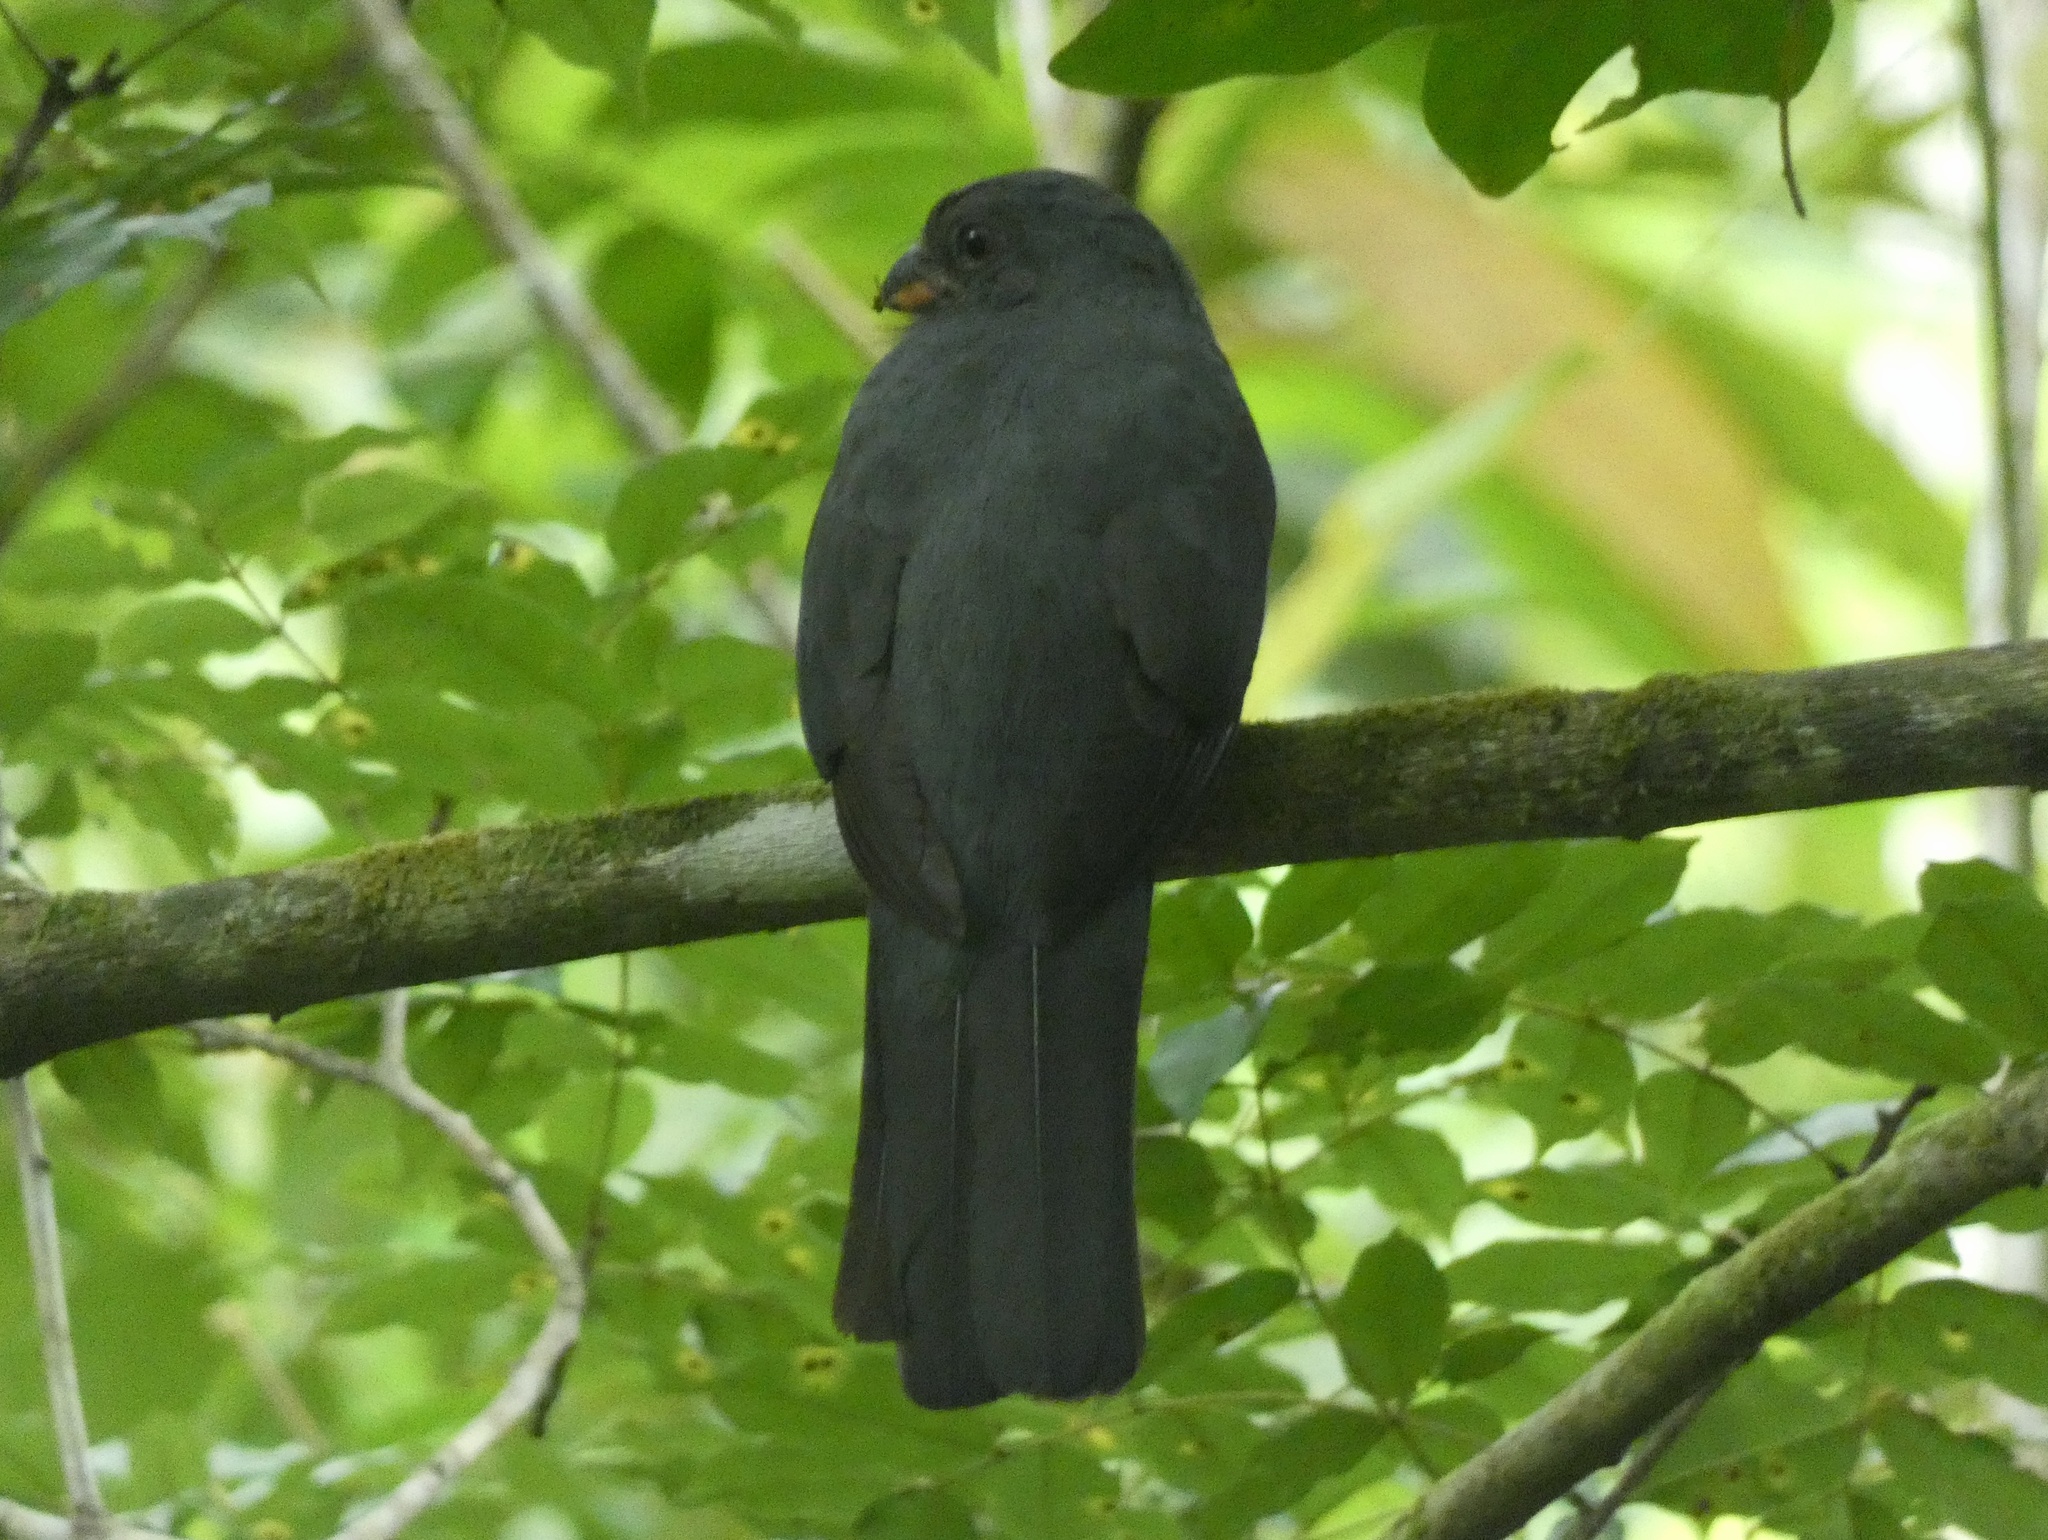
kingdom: Animalia
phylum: Chordata
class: Aves
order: Trogoniformes
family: Trogonidae
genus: Trogon
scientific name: Trogon massena
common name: Slaty-tailed trogon
